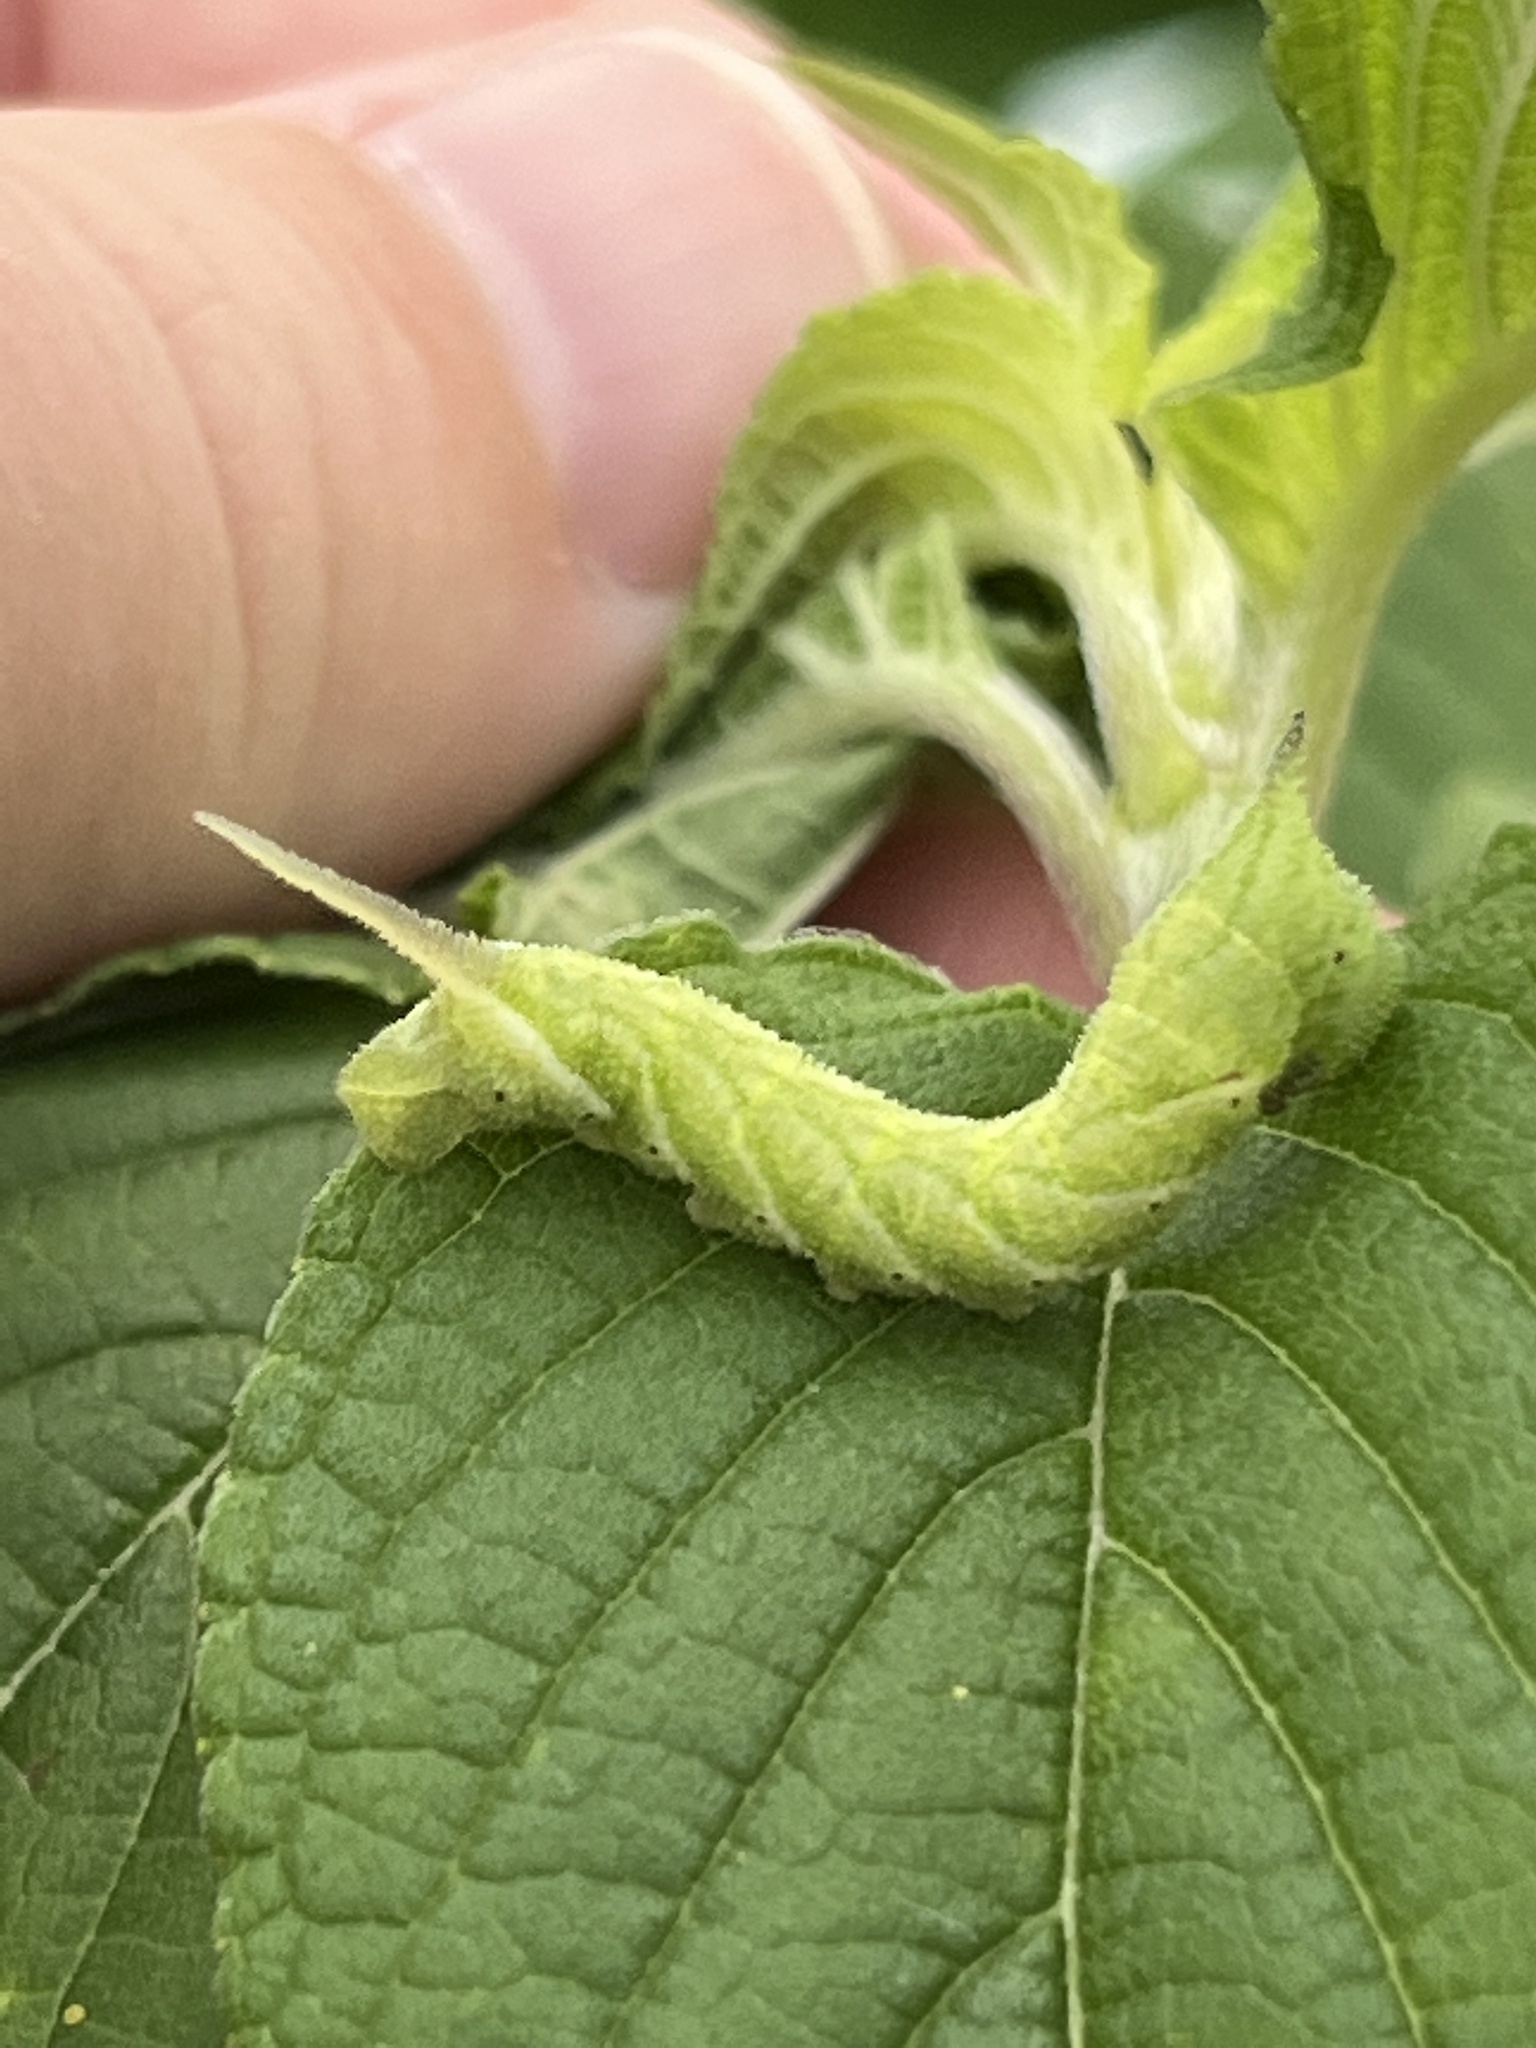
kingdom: Animalia
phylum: Arthropoda
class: Insecta
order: Lepidoptera
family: Sphingidae
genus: Lintneria
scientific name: Lintneria eremitus
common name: Hermit sphinx
